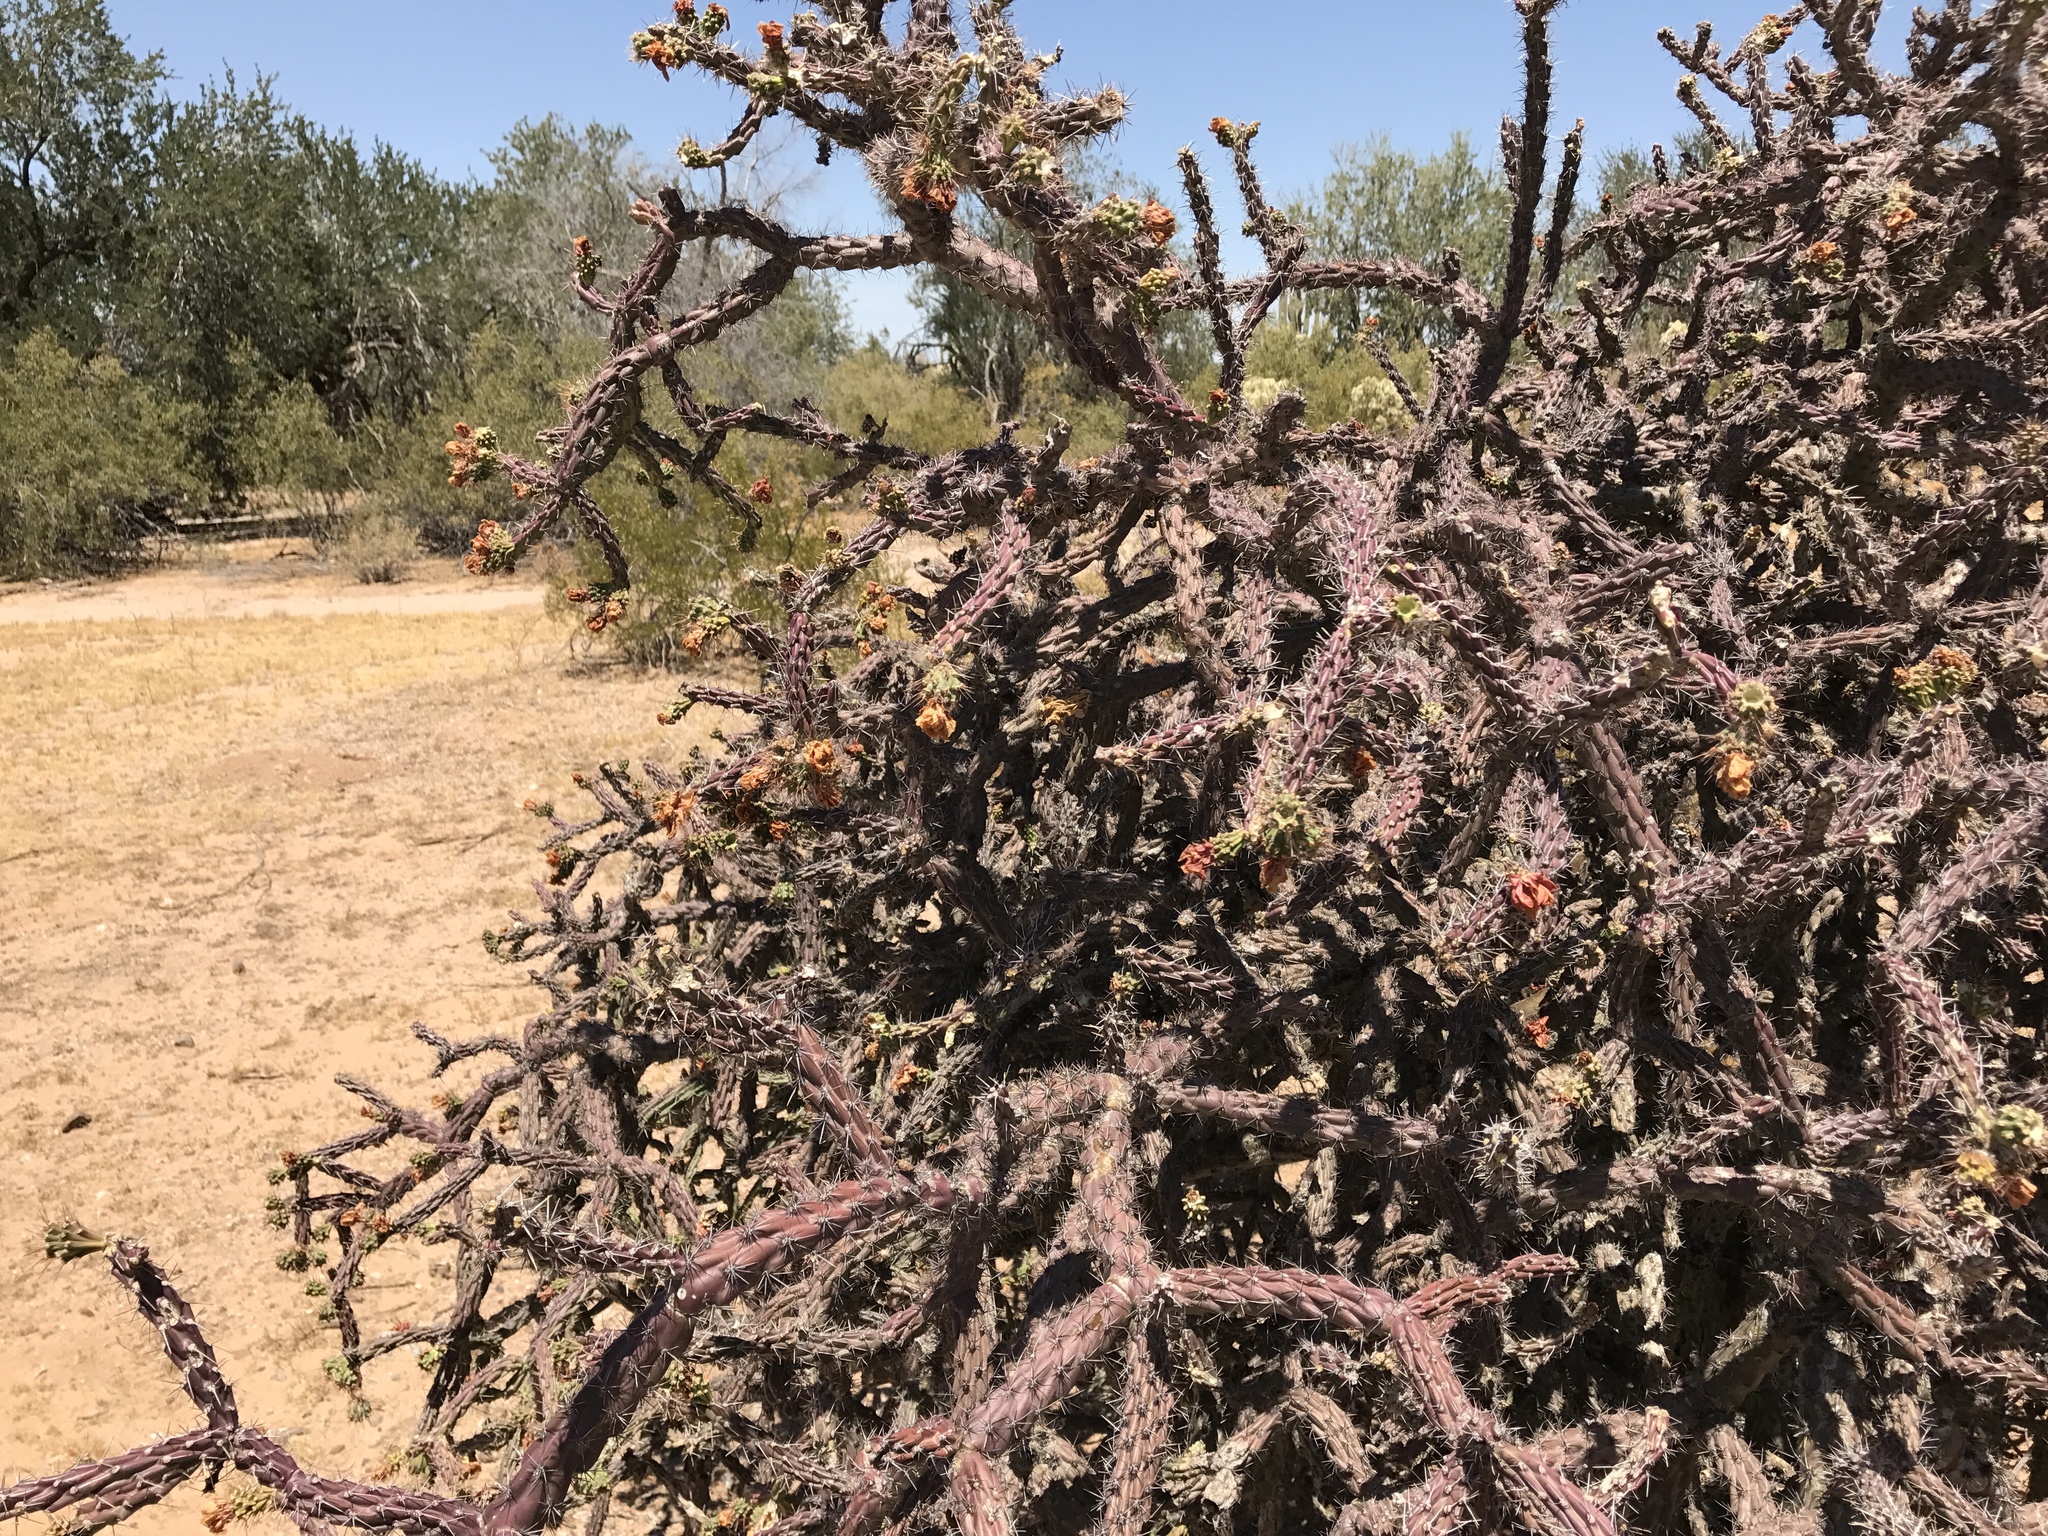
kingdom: Plantae
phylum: Tracheophyta
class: Magnoliopsida
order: Caryophyllales
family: Cactaceae
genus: Cylindropuntia
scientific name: Cylindropuntia thurberi
